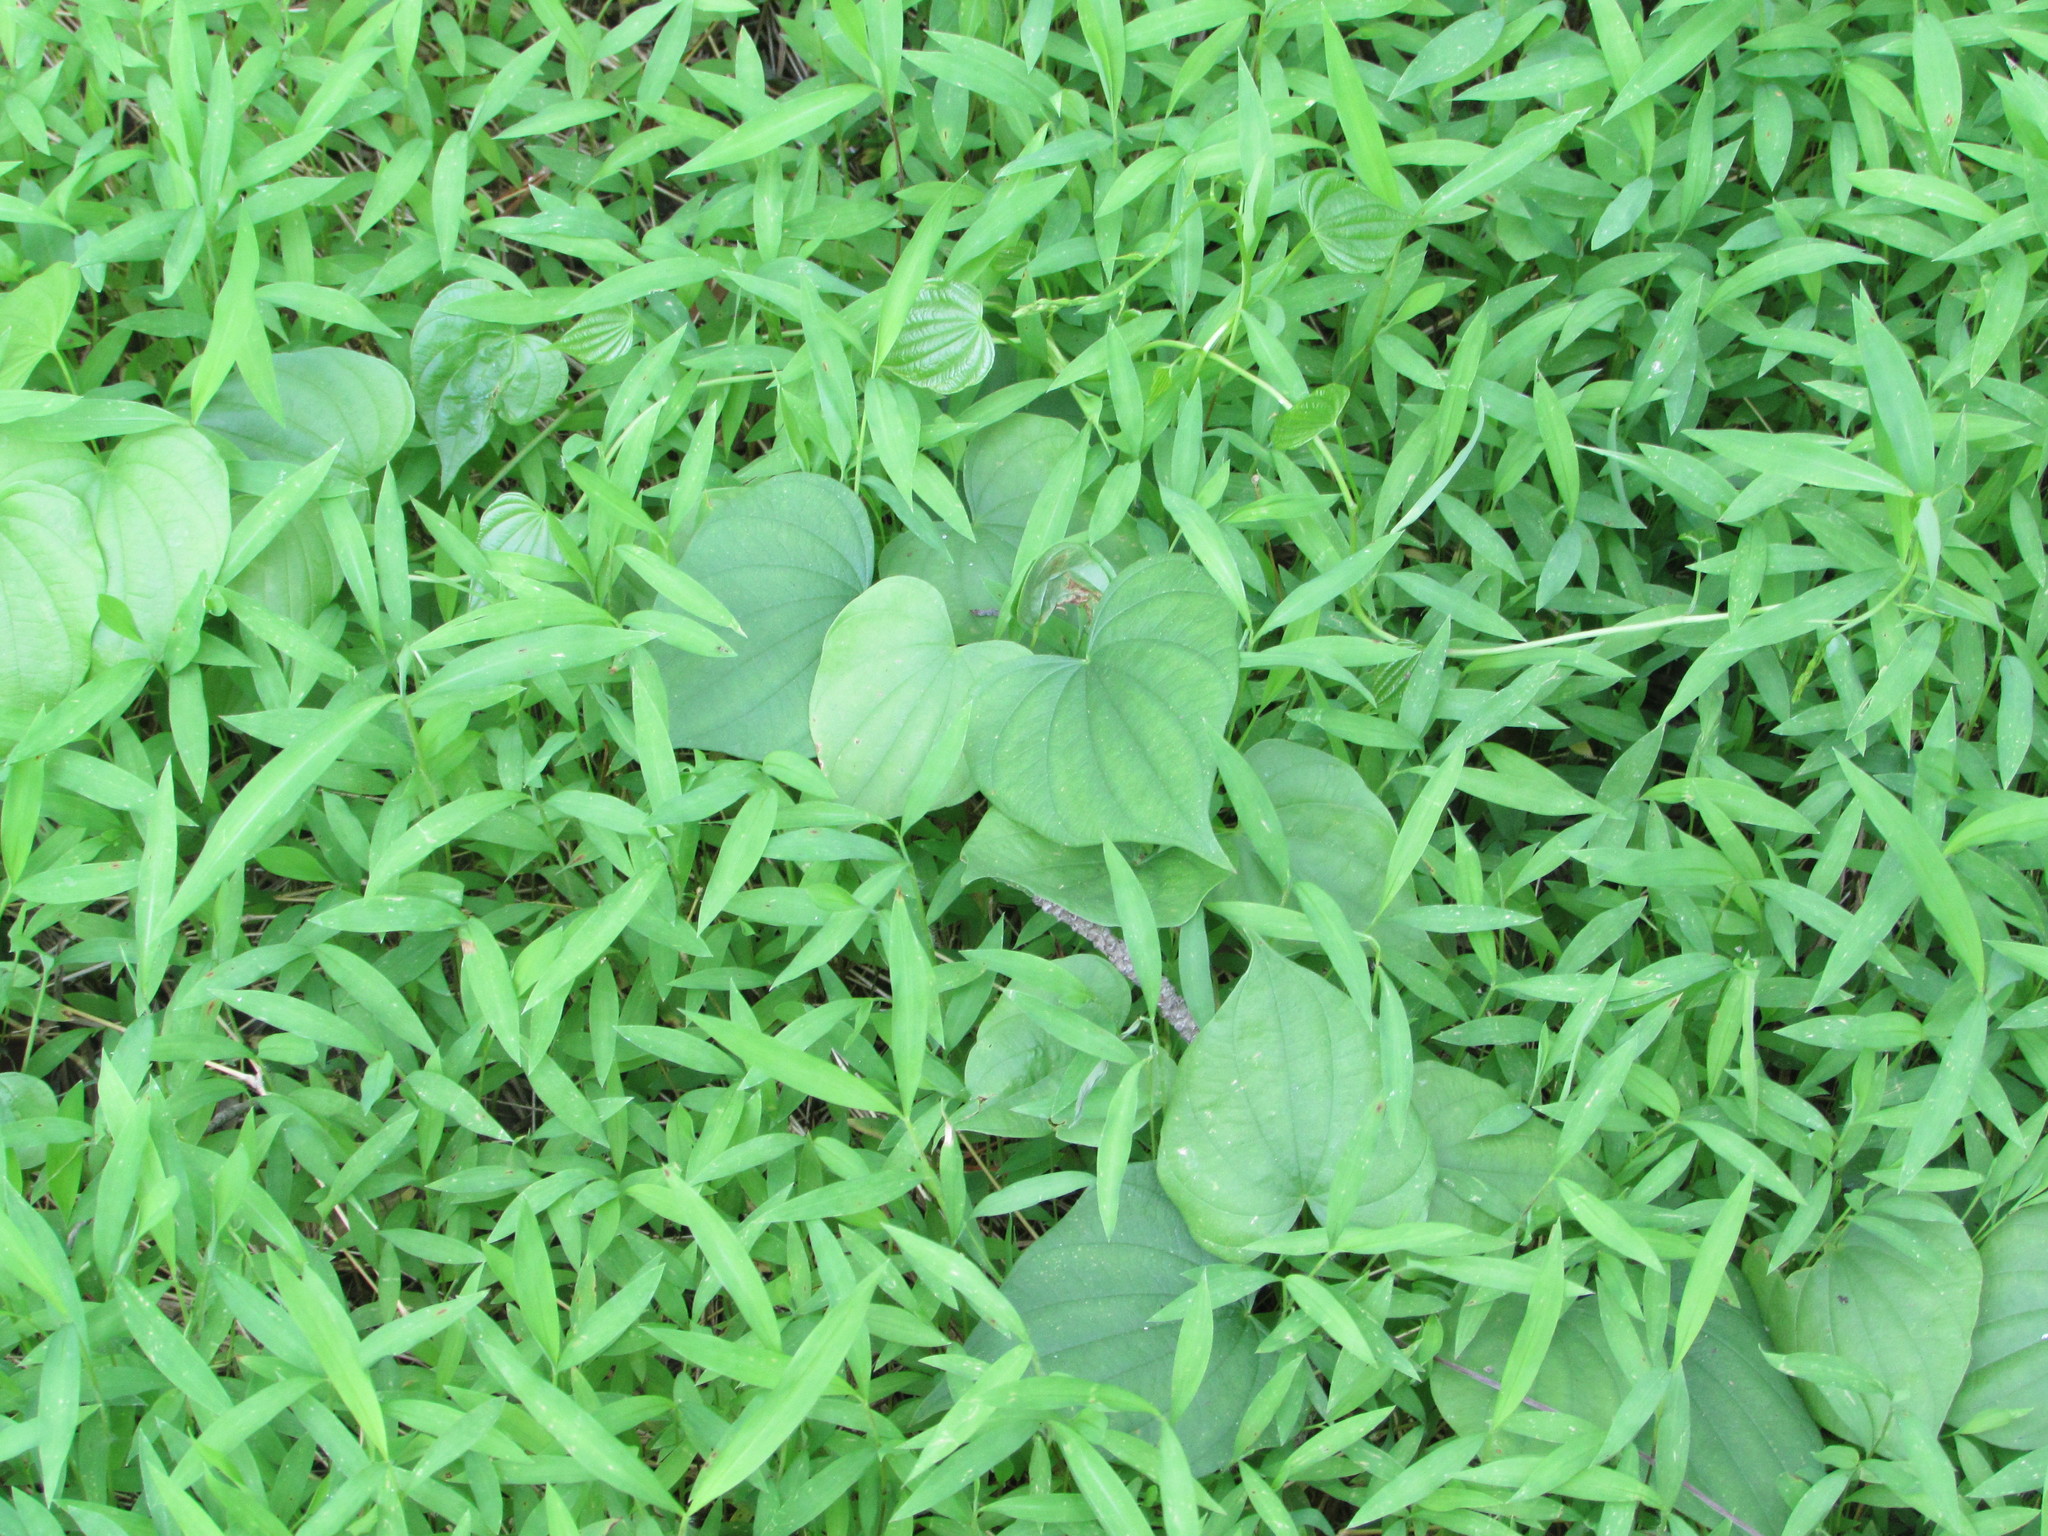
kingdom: Plantae
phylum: Tracheophyta
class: Liliopsida
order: Poales
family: Poaceae
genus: Microstegium
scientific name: Microstegium vimineum
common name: Japanese stiltgrass
